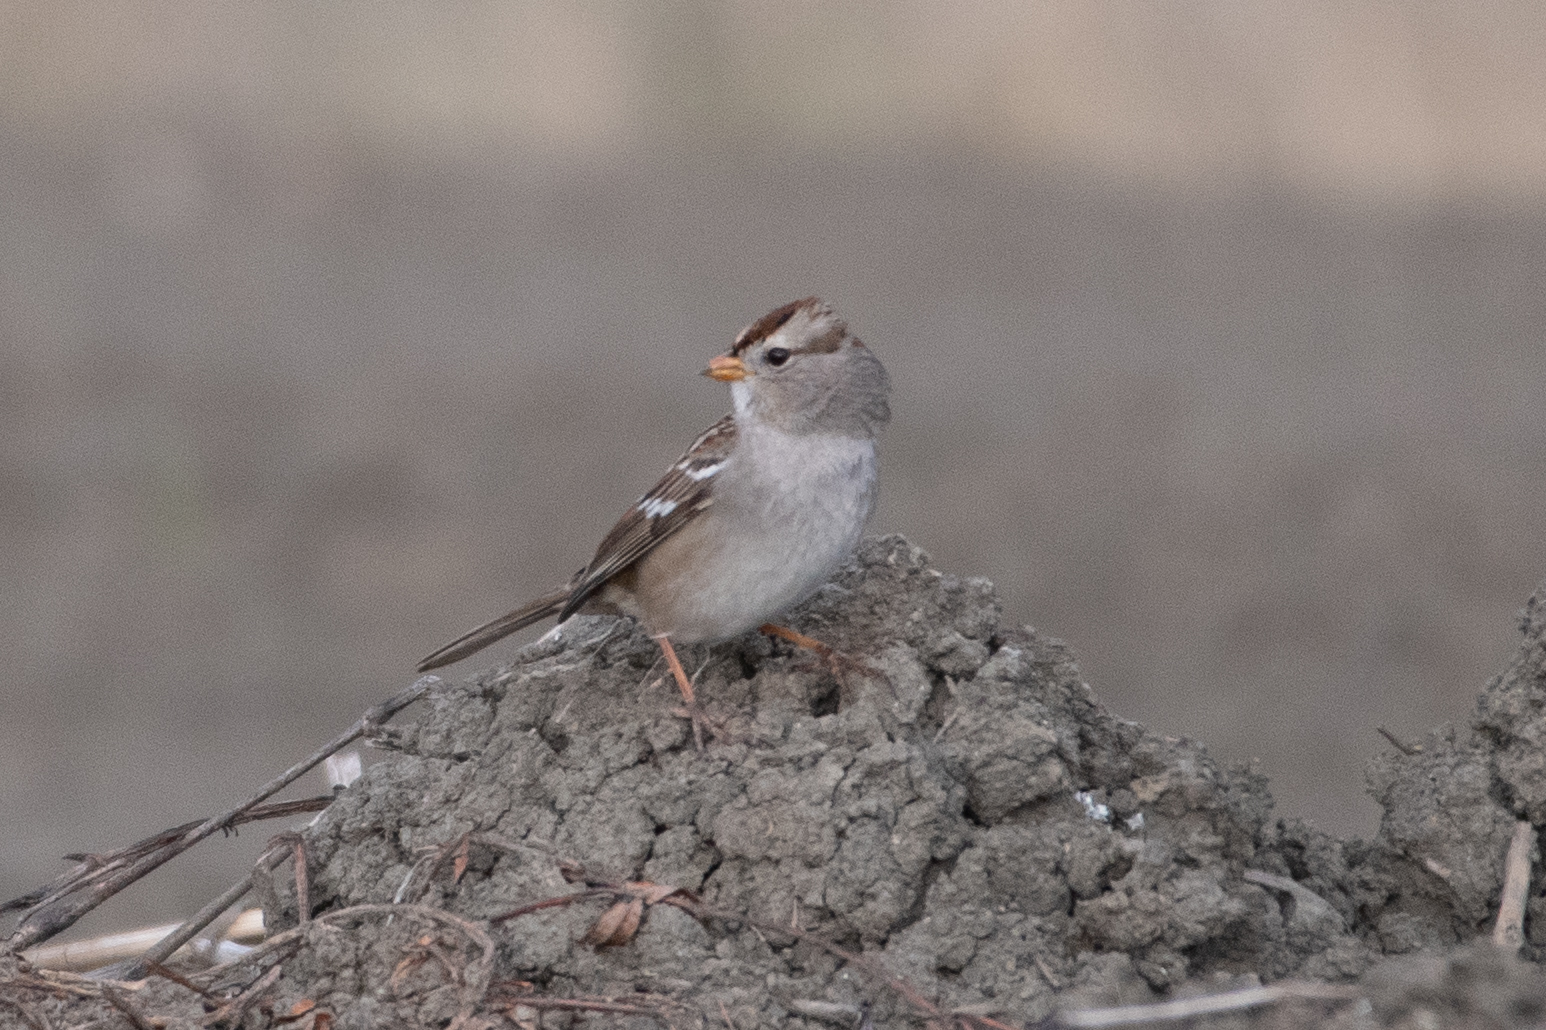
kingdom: Animalia
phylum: Chordata
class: Aves
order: Passeriformes
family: Passerellidae
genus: Zonotrichia
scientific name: Zonotrichia leucophrys
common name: White-crowned sparrow
